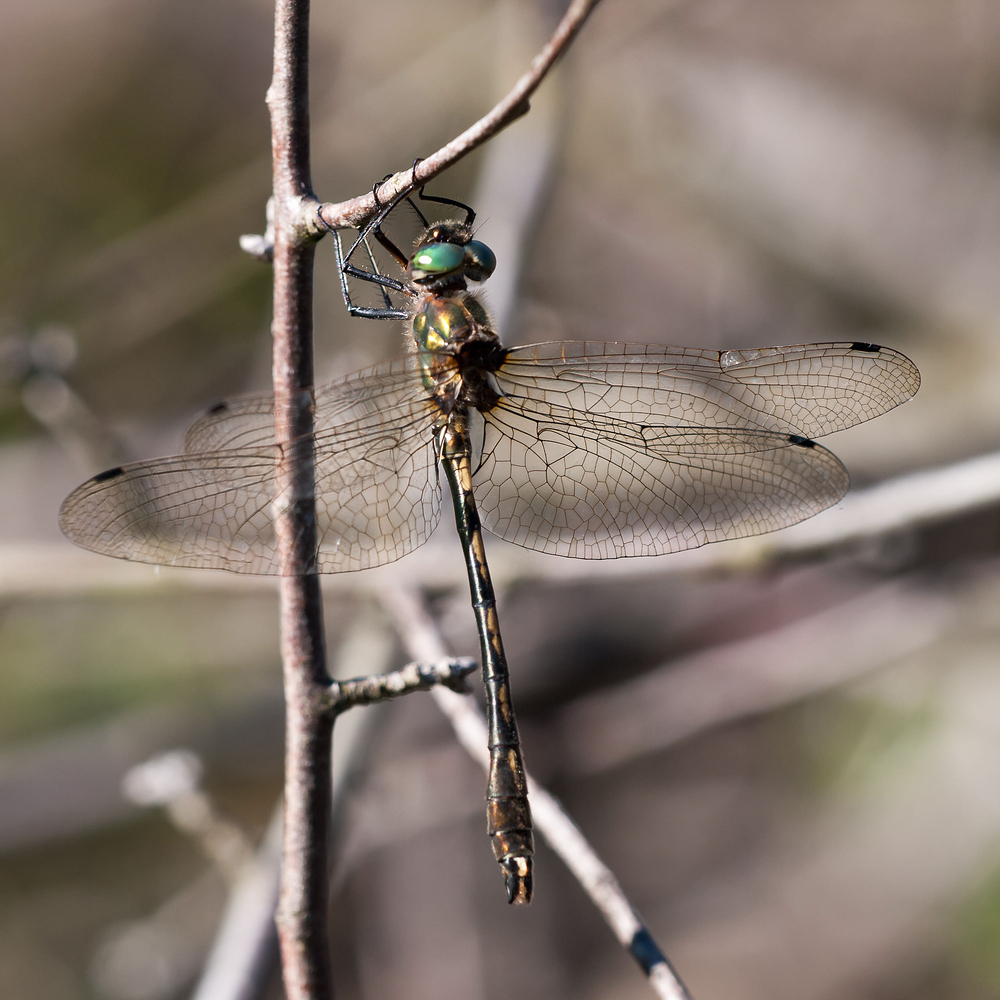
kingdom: Animalia
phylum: Arthropoda
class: Insecta
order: Odonata
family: Corduliidae
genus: Oxygastra
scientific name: Oxygastra curtisii
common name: Orange-spotted emerald
